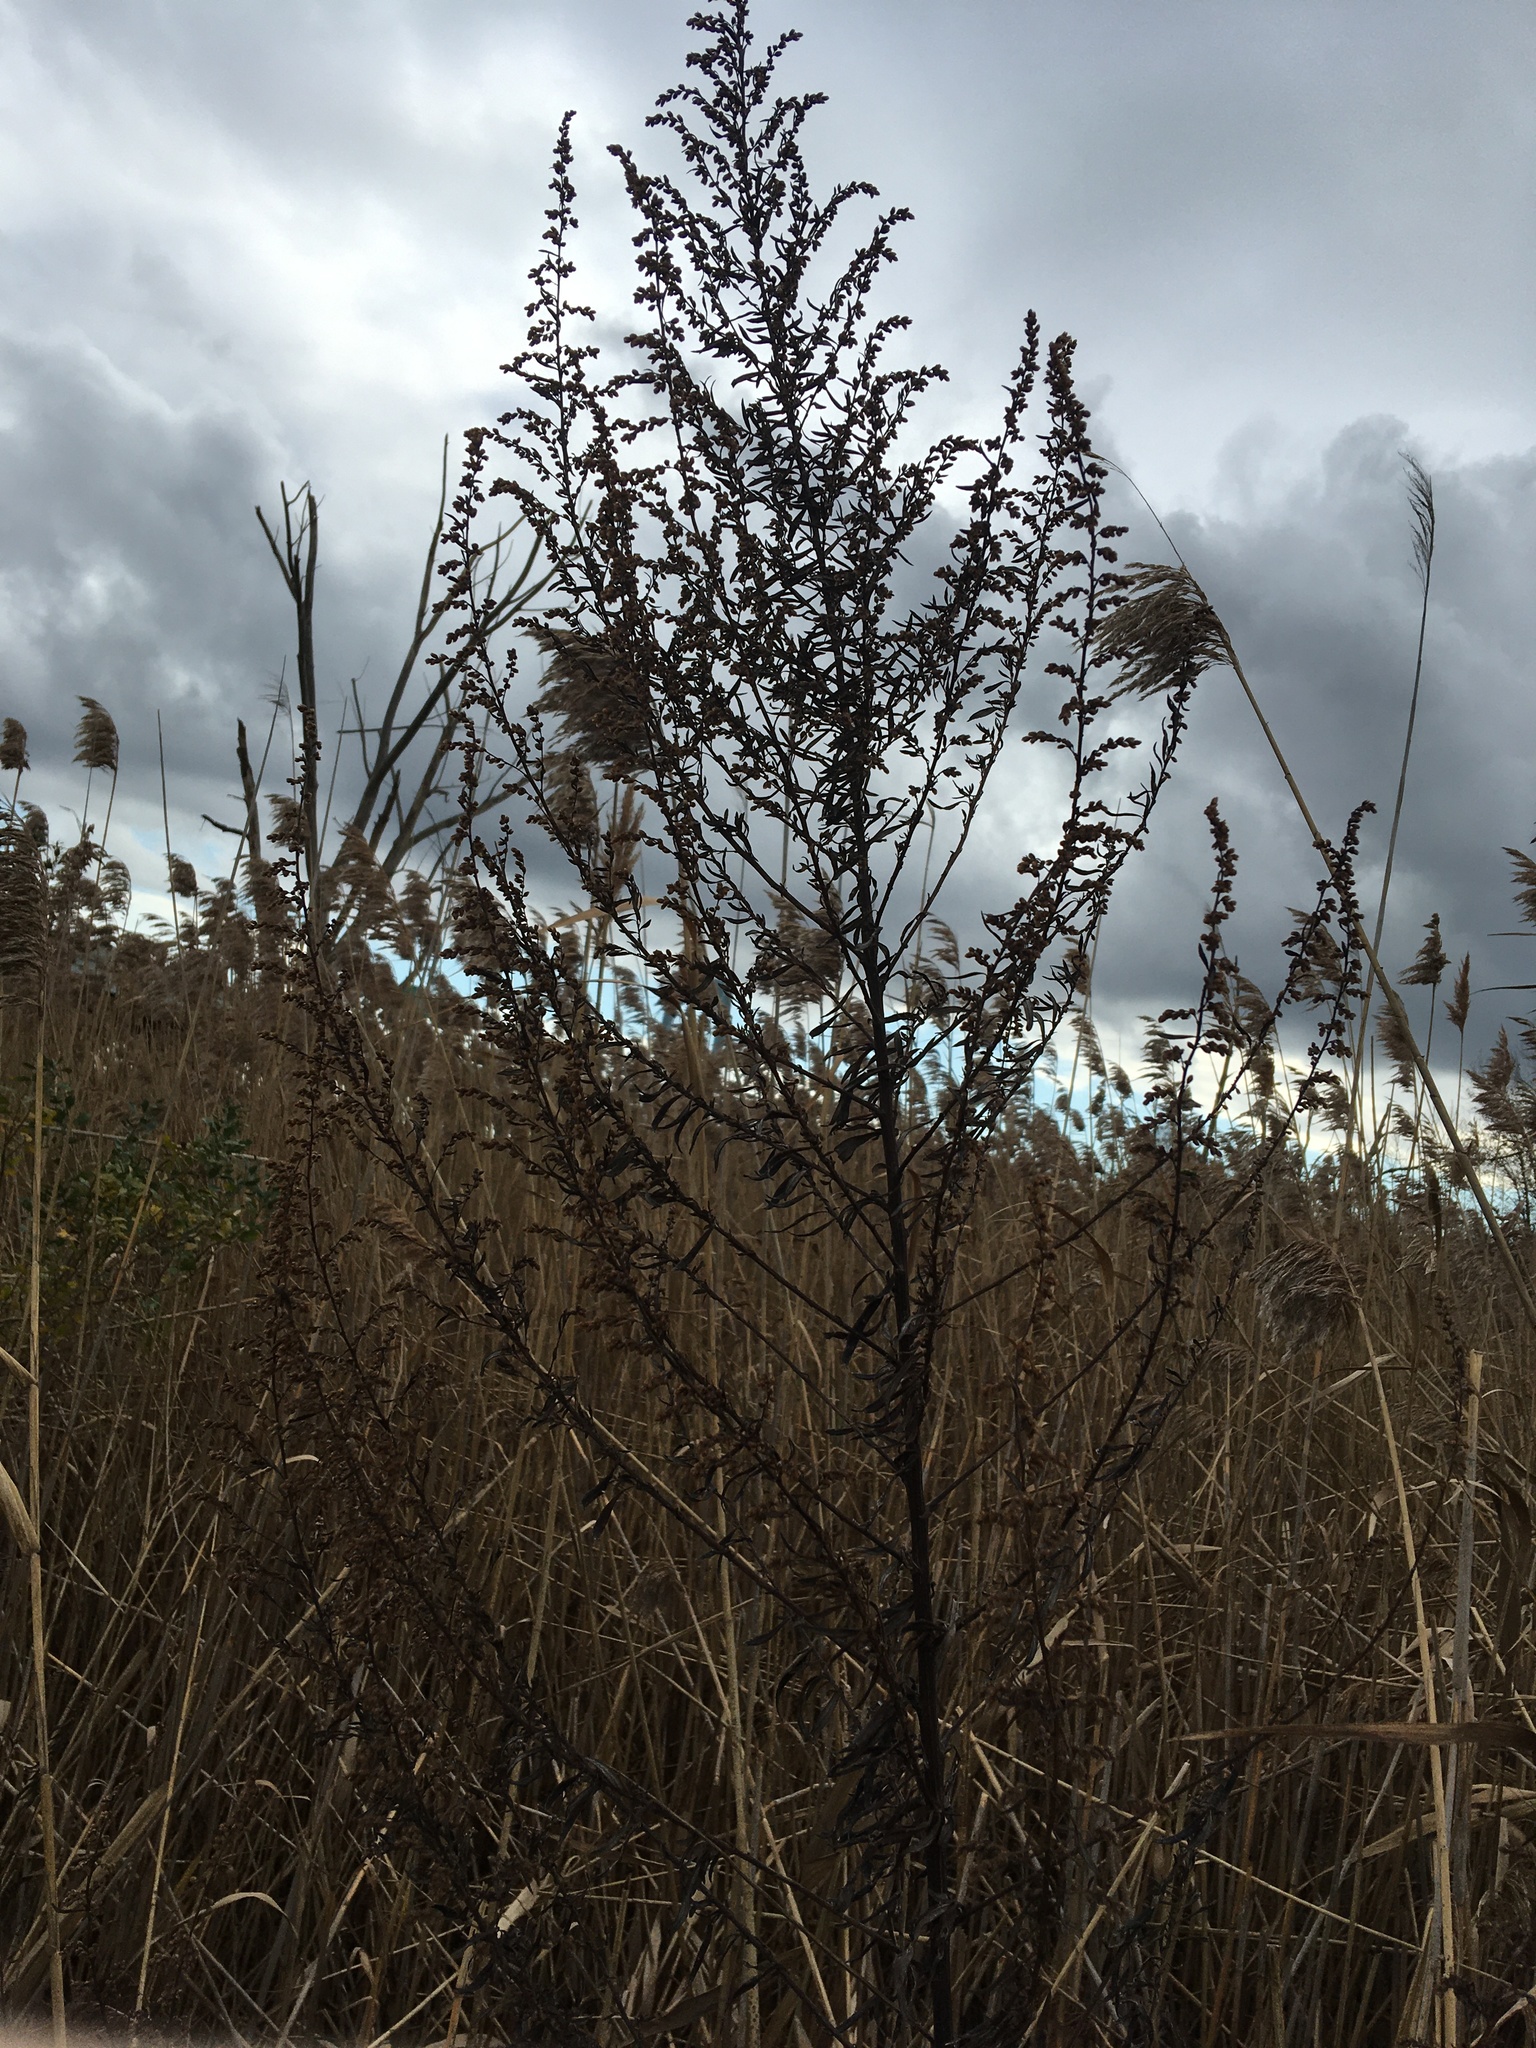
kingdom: Plantae
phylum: Tracheophyta
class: Magnoliopsida
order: Asterales
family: Asteraceae
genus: Artemisia
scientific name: Artemisia vulgaris
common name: Mugwort
